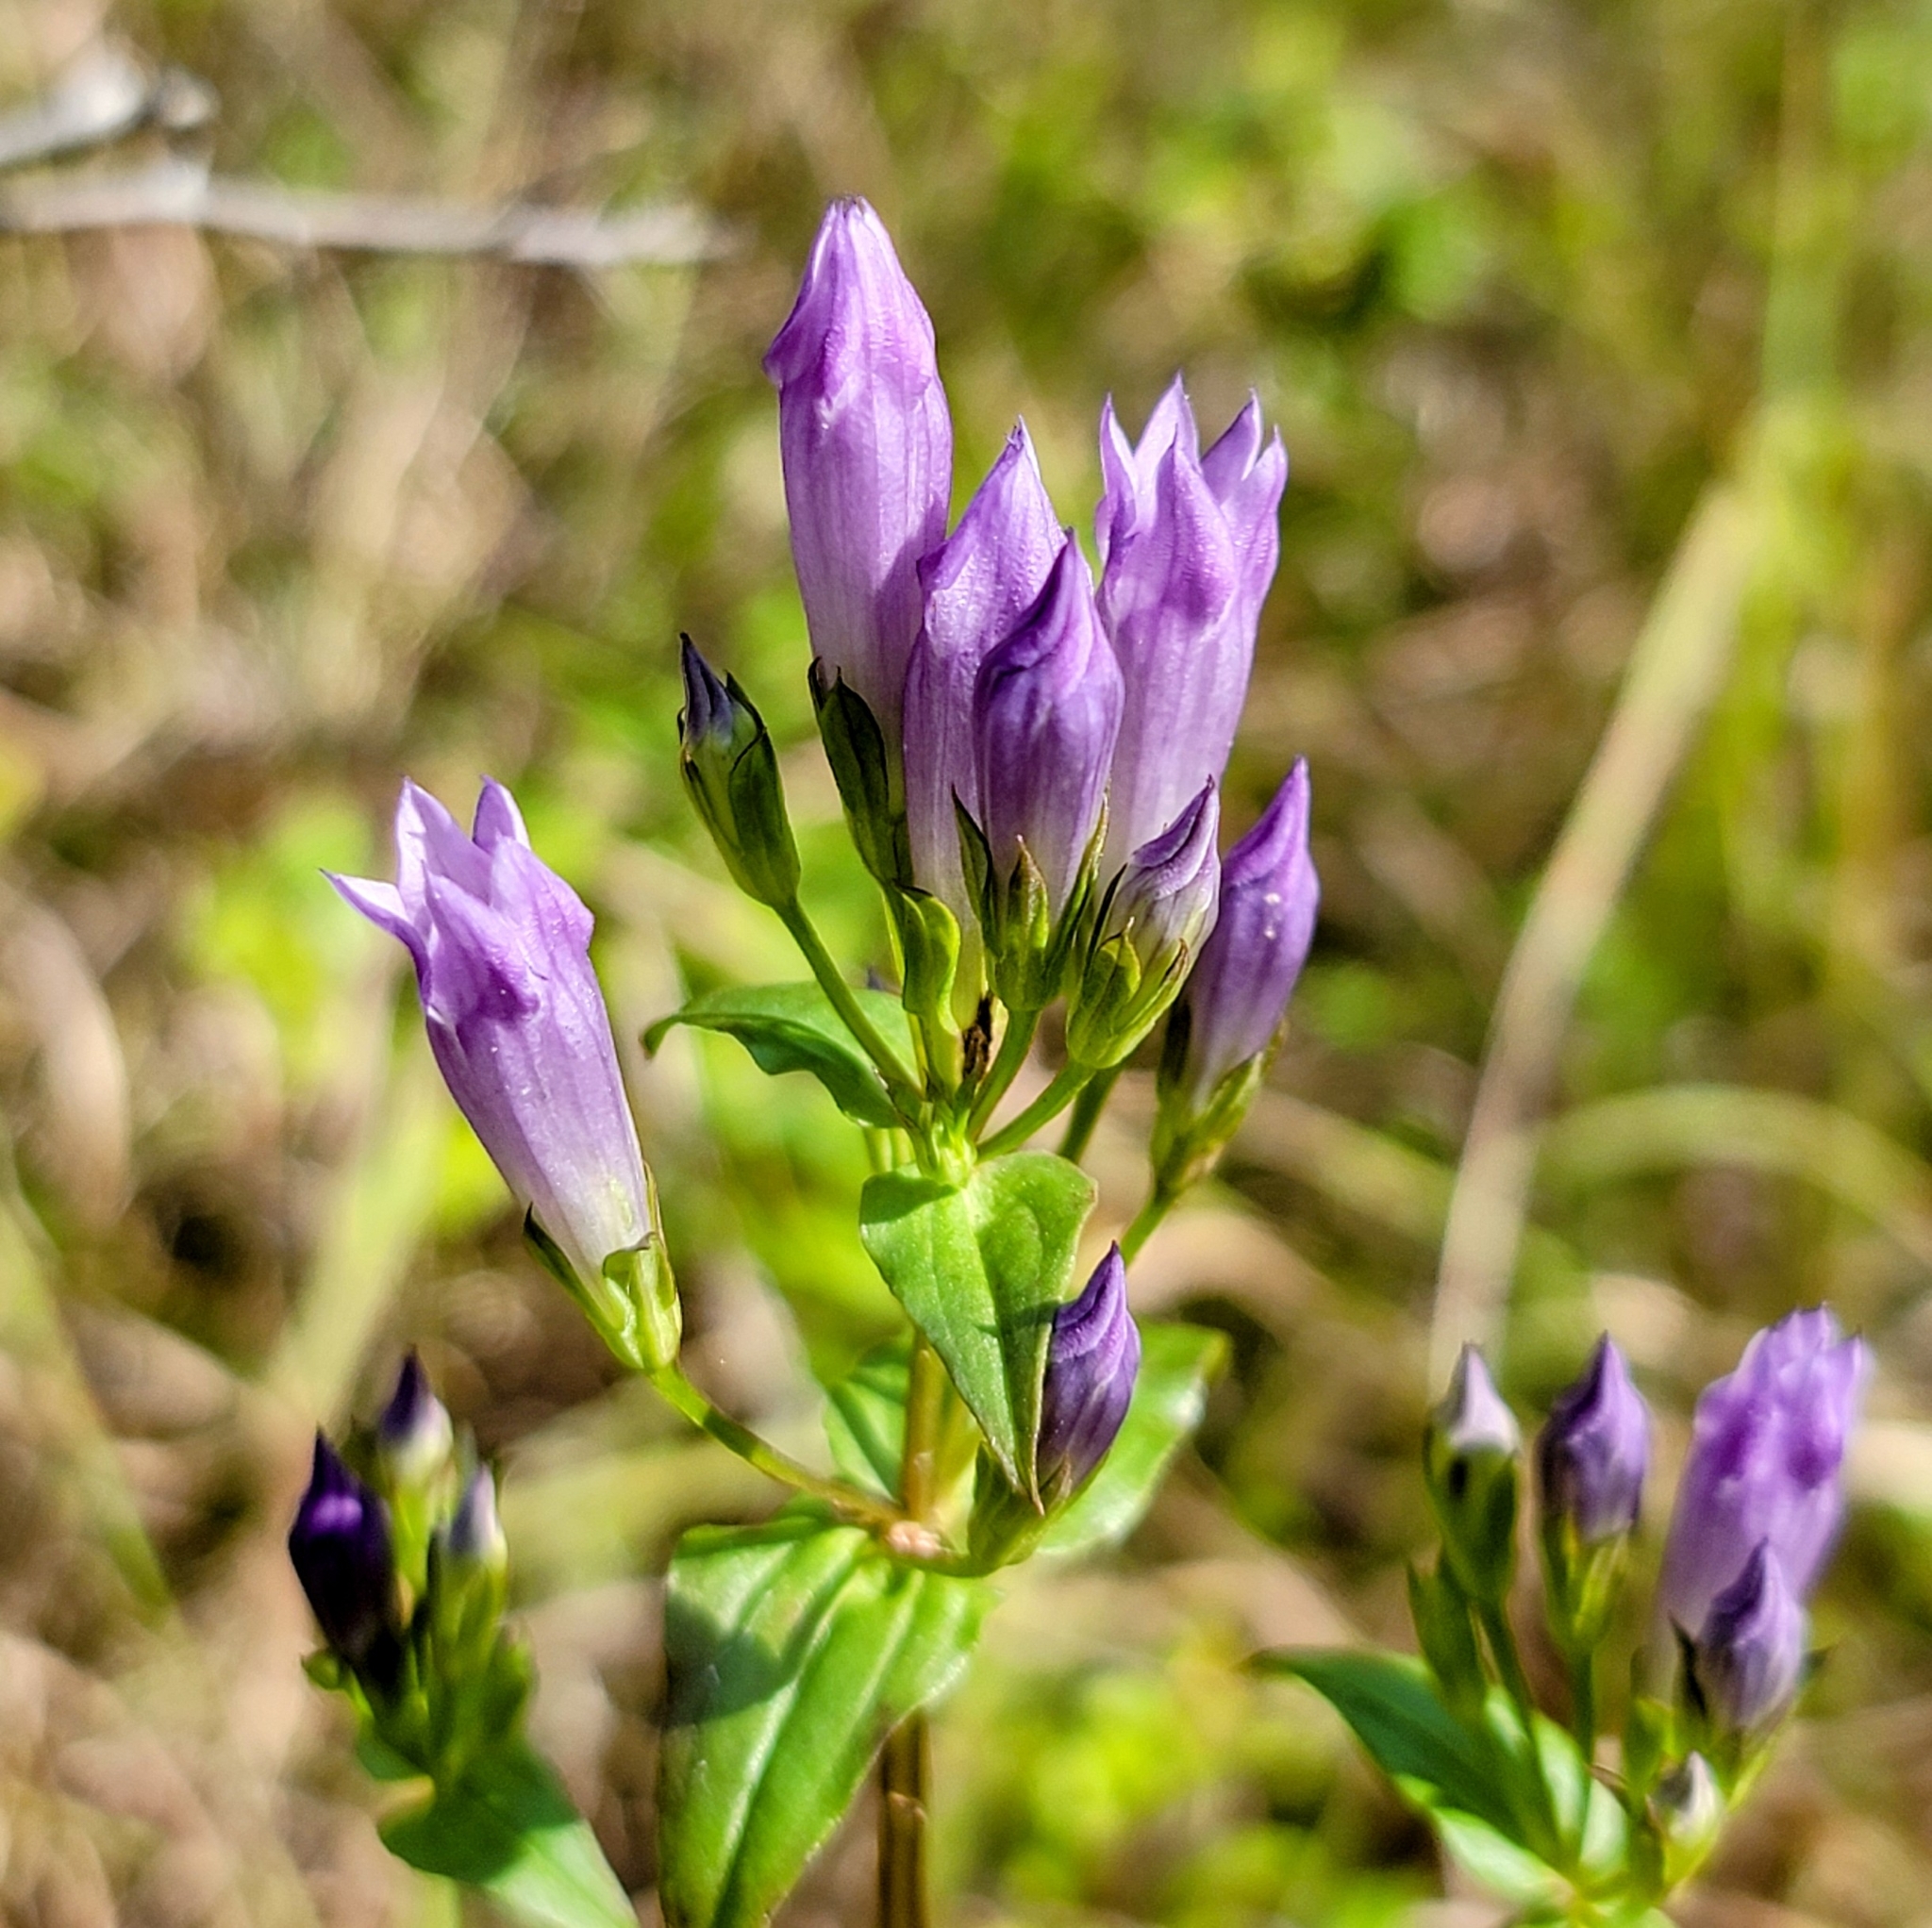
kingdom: Plantae
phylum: Tracheophyta
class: Magnoliopsida
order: Gentianales
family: Gentianaceae
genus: Gentianella
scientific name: Gentianella quinquefolia
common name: Agueweed
